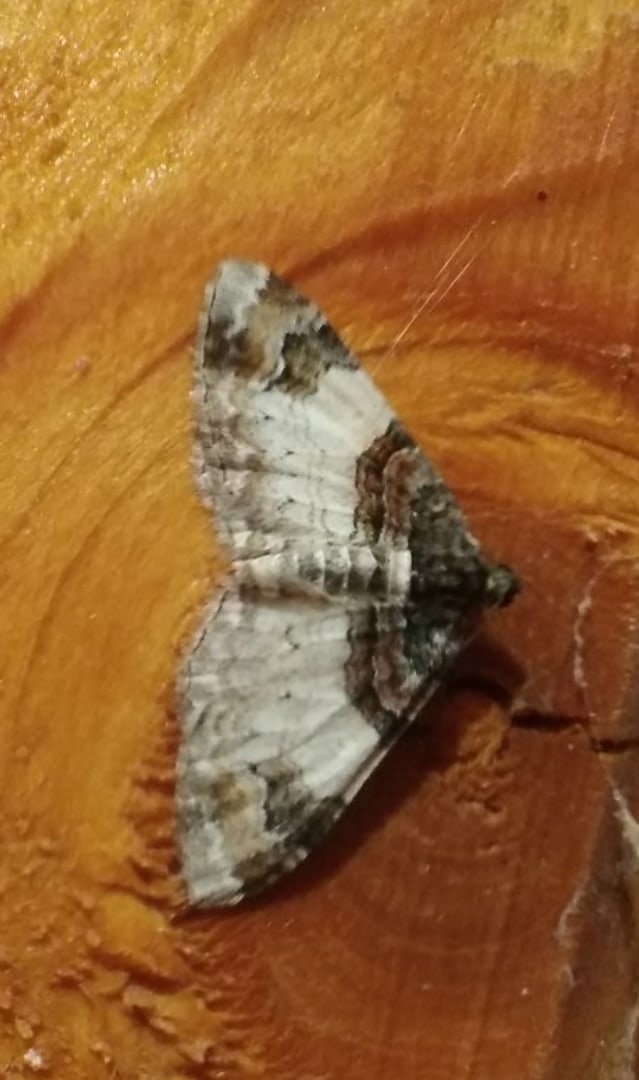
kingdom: Animalia
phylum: Arthropoda
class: Insecta
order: Lepidoptera
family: Geometridae
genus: Catarhoe
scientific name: Catarhoe cuculata
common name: Royal mantle
